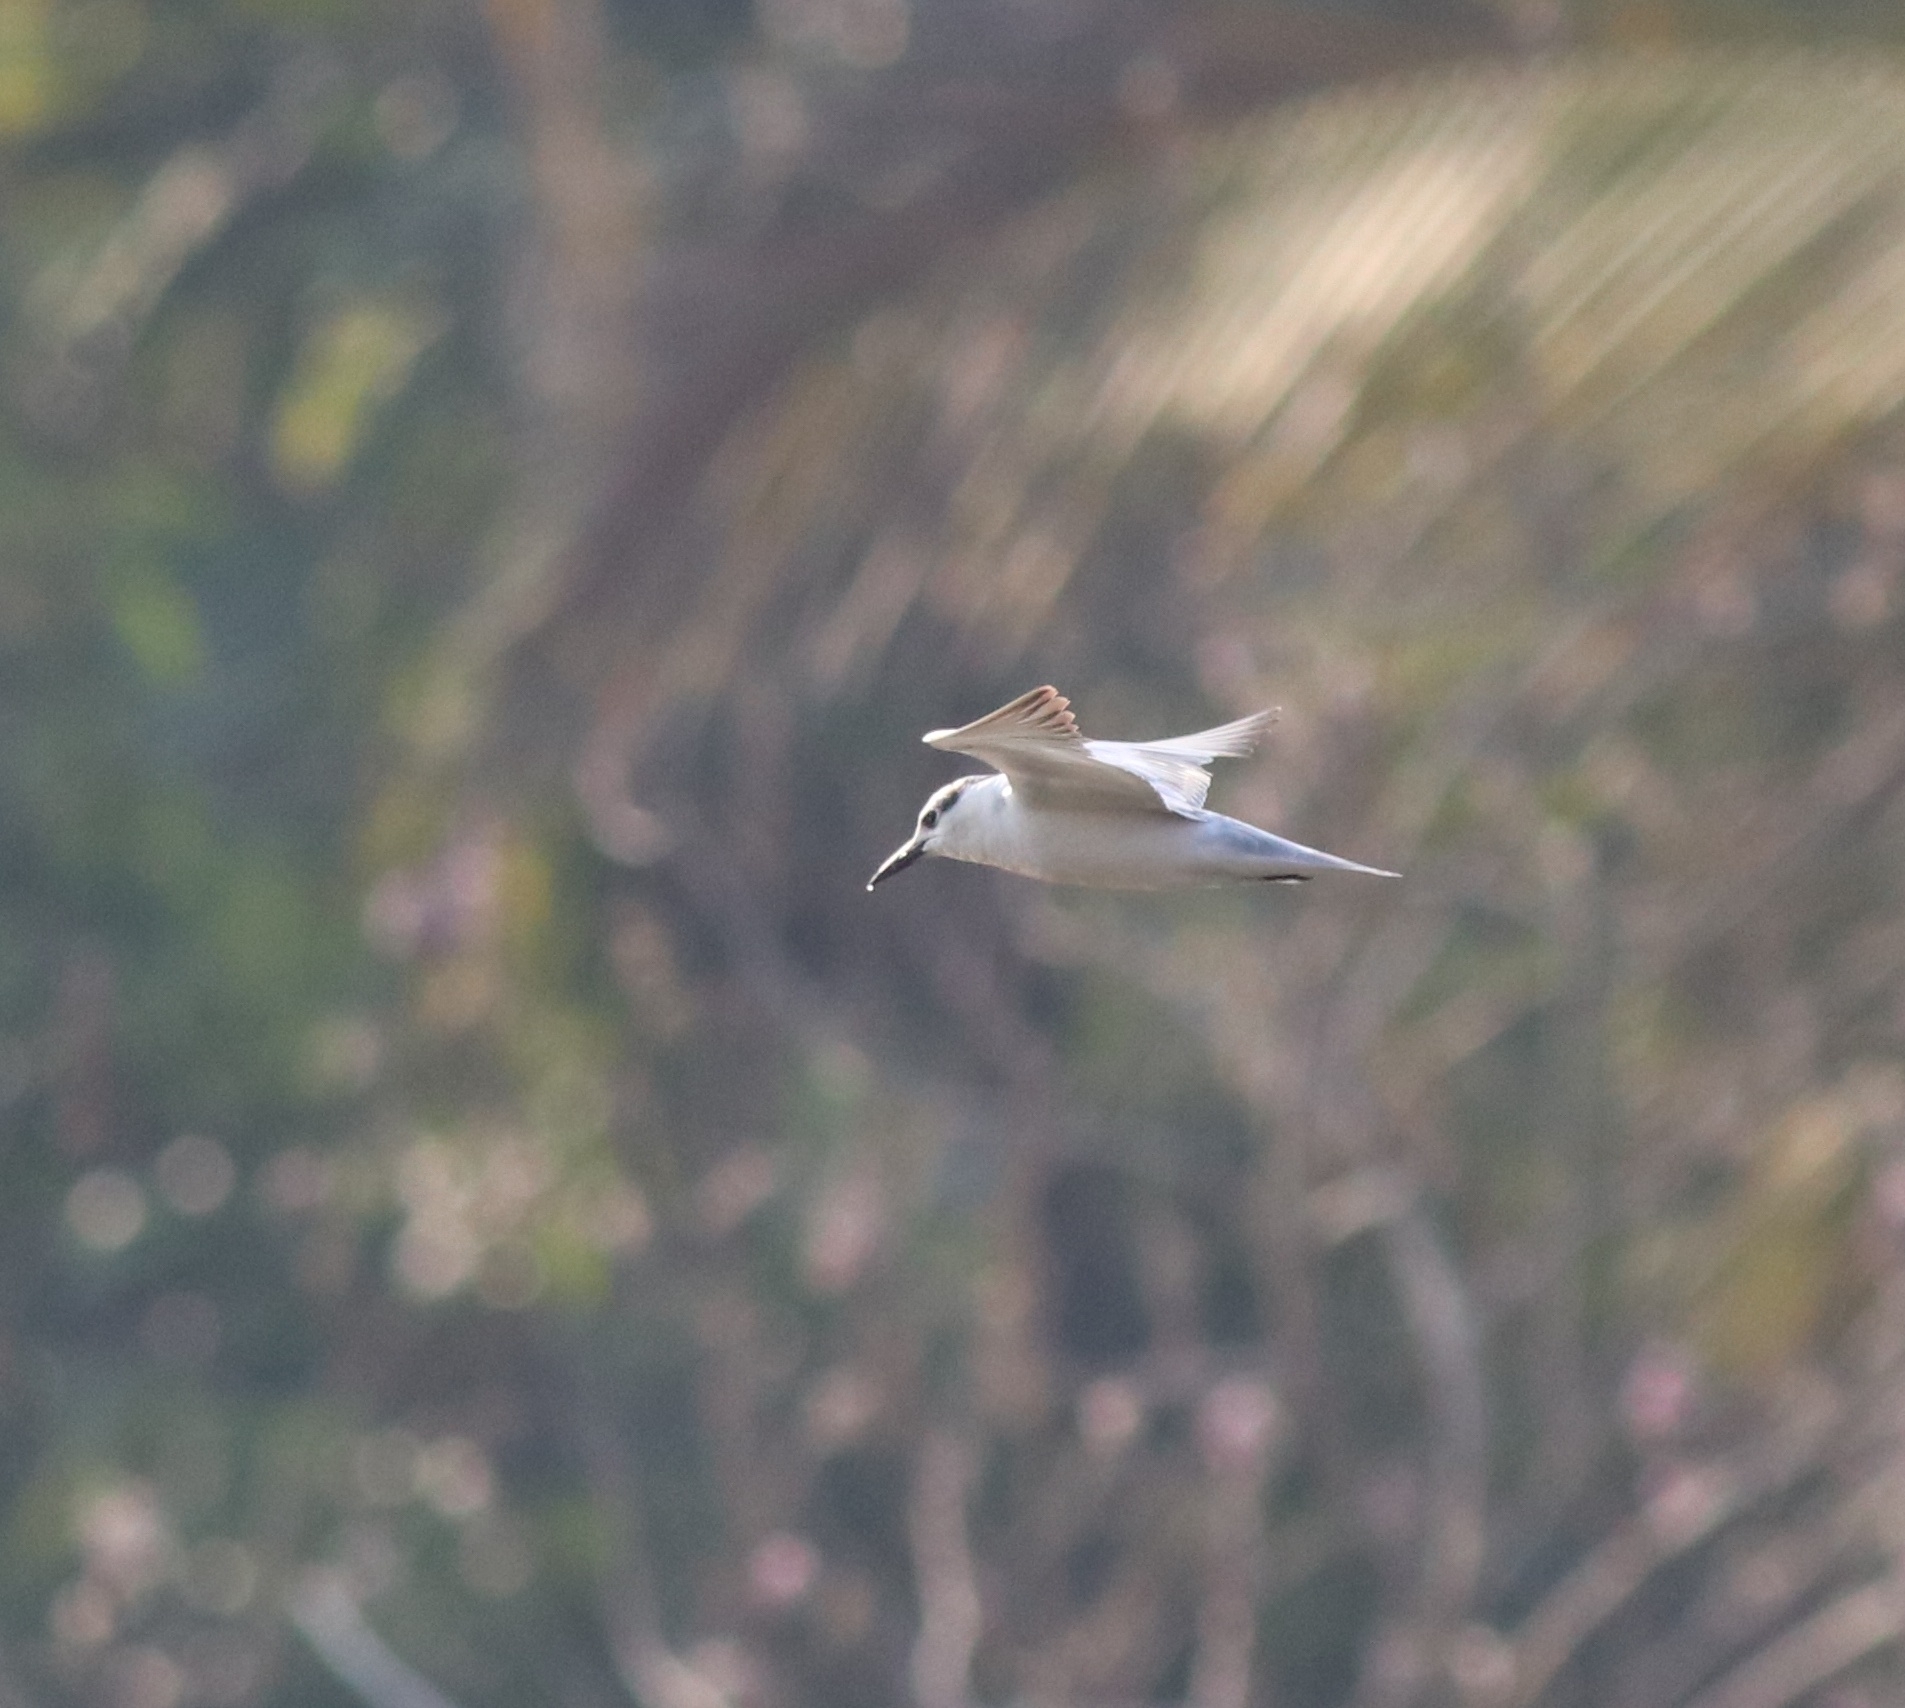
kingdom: Animalia
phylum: Chordata
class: Aves
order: Charadriiformes
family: Laridae
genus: Chlidonias
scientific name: Chlidonias hybrida
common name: Whiskered tern
